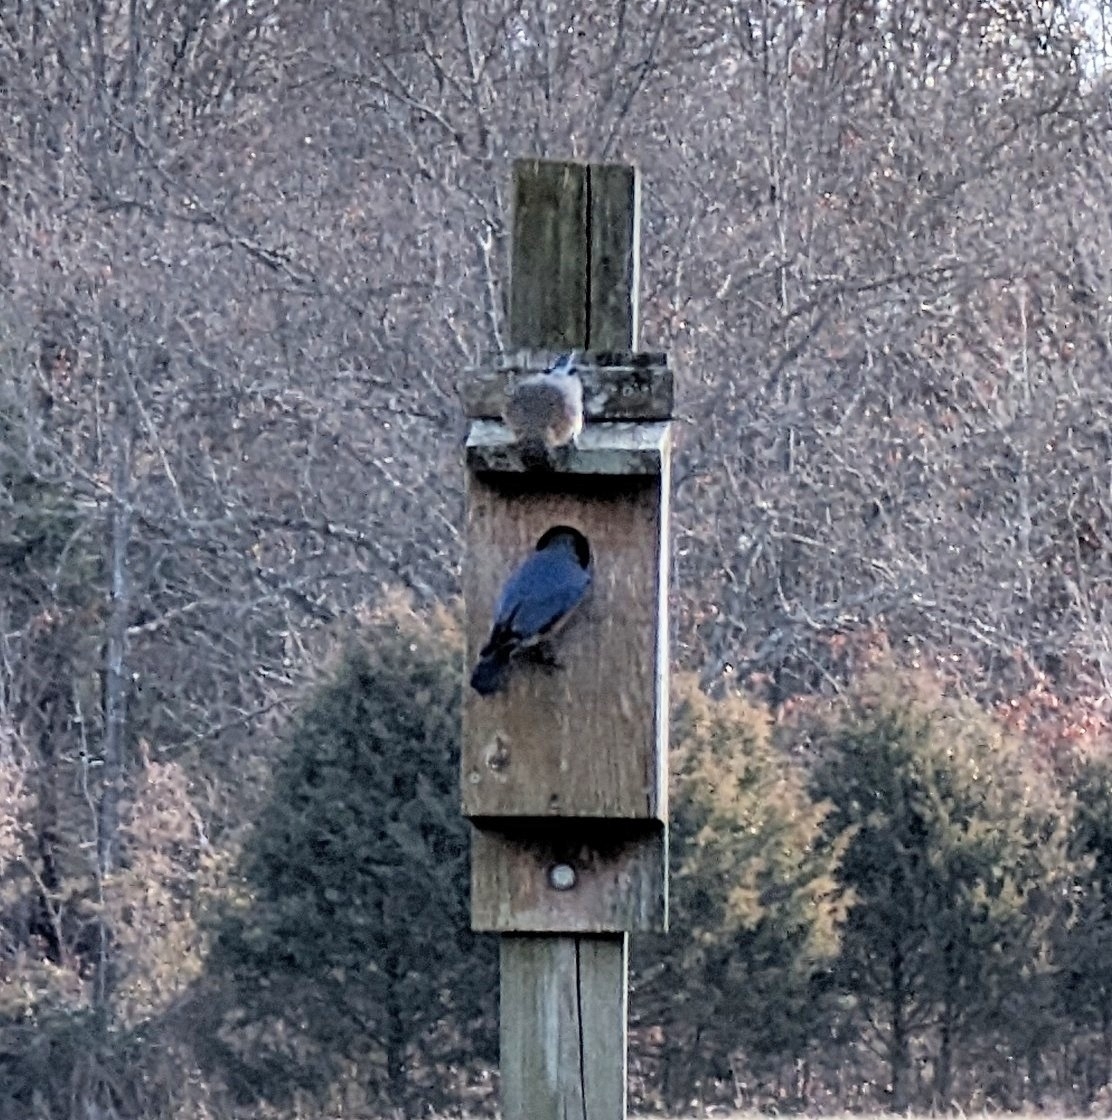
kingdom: Animalia
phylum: Chordata
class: Aves
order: Passeriformes
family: Turdidae
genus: Sialia
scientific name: Sialia sialis
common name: Eastern bluebird
